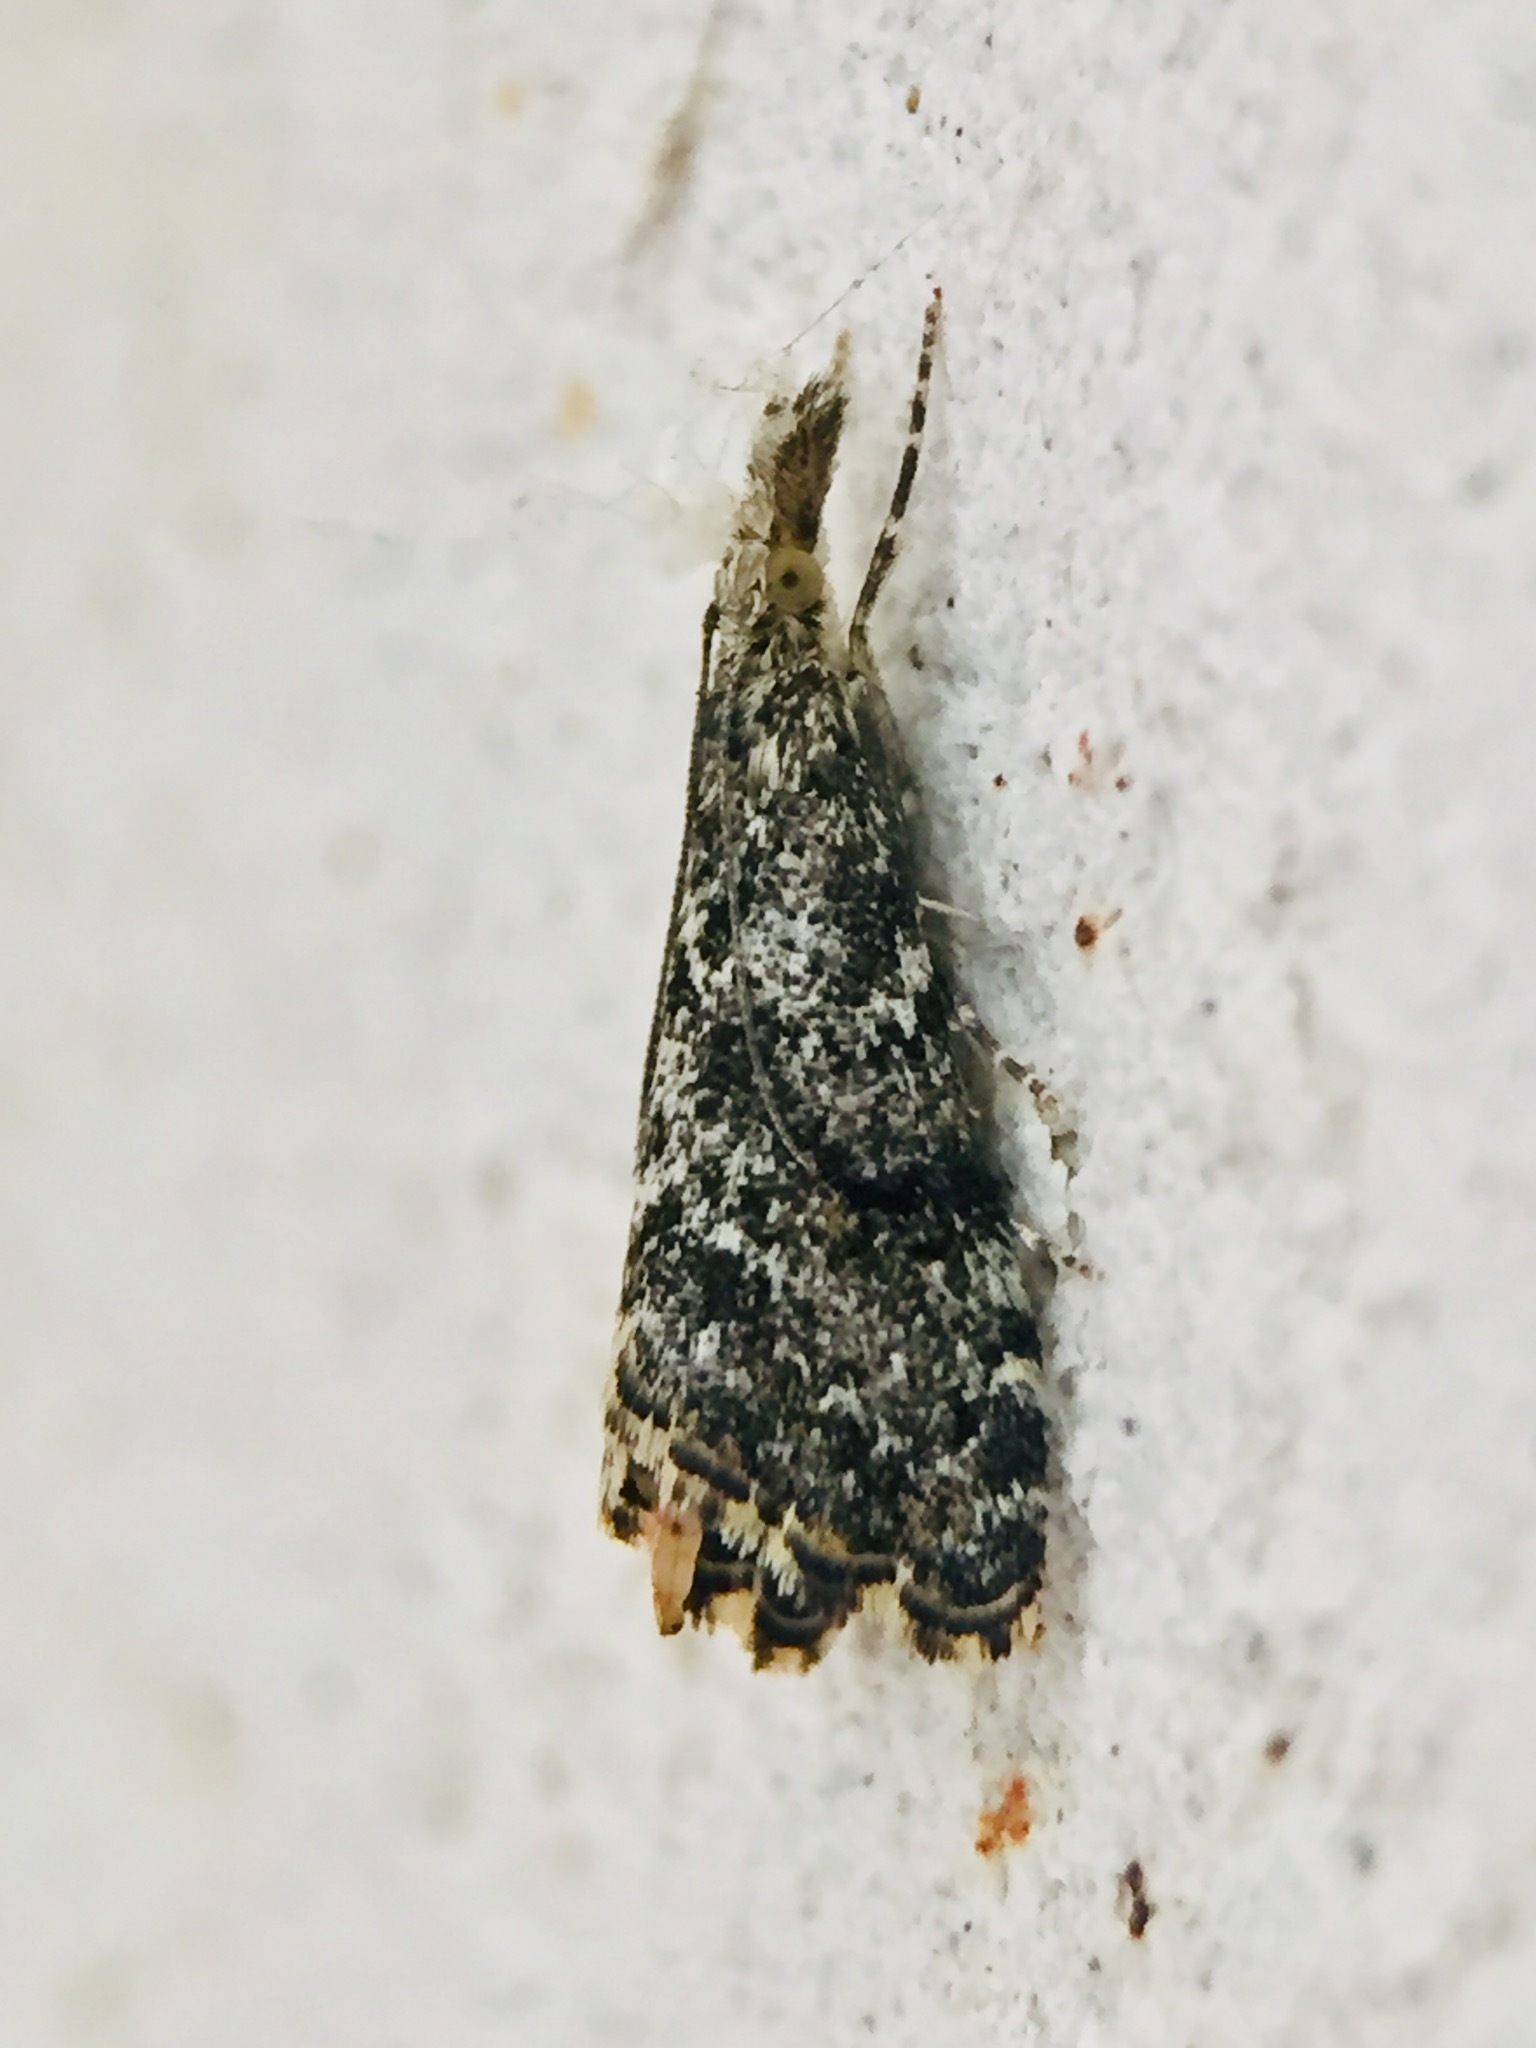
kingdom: Animalia
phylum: Arthropoda
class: Insecta
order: Lepidoptera
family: Crambidae
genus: Glaucocharis
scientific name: Glaucocharis elaina
